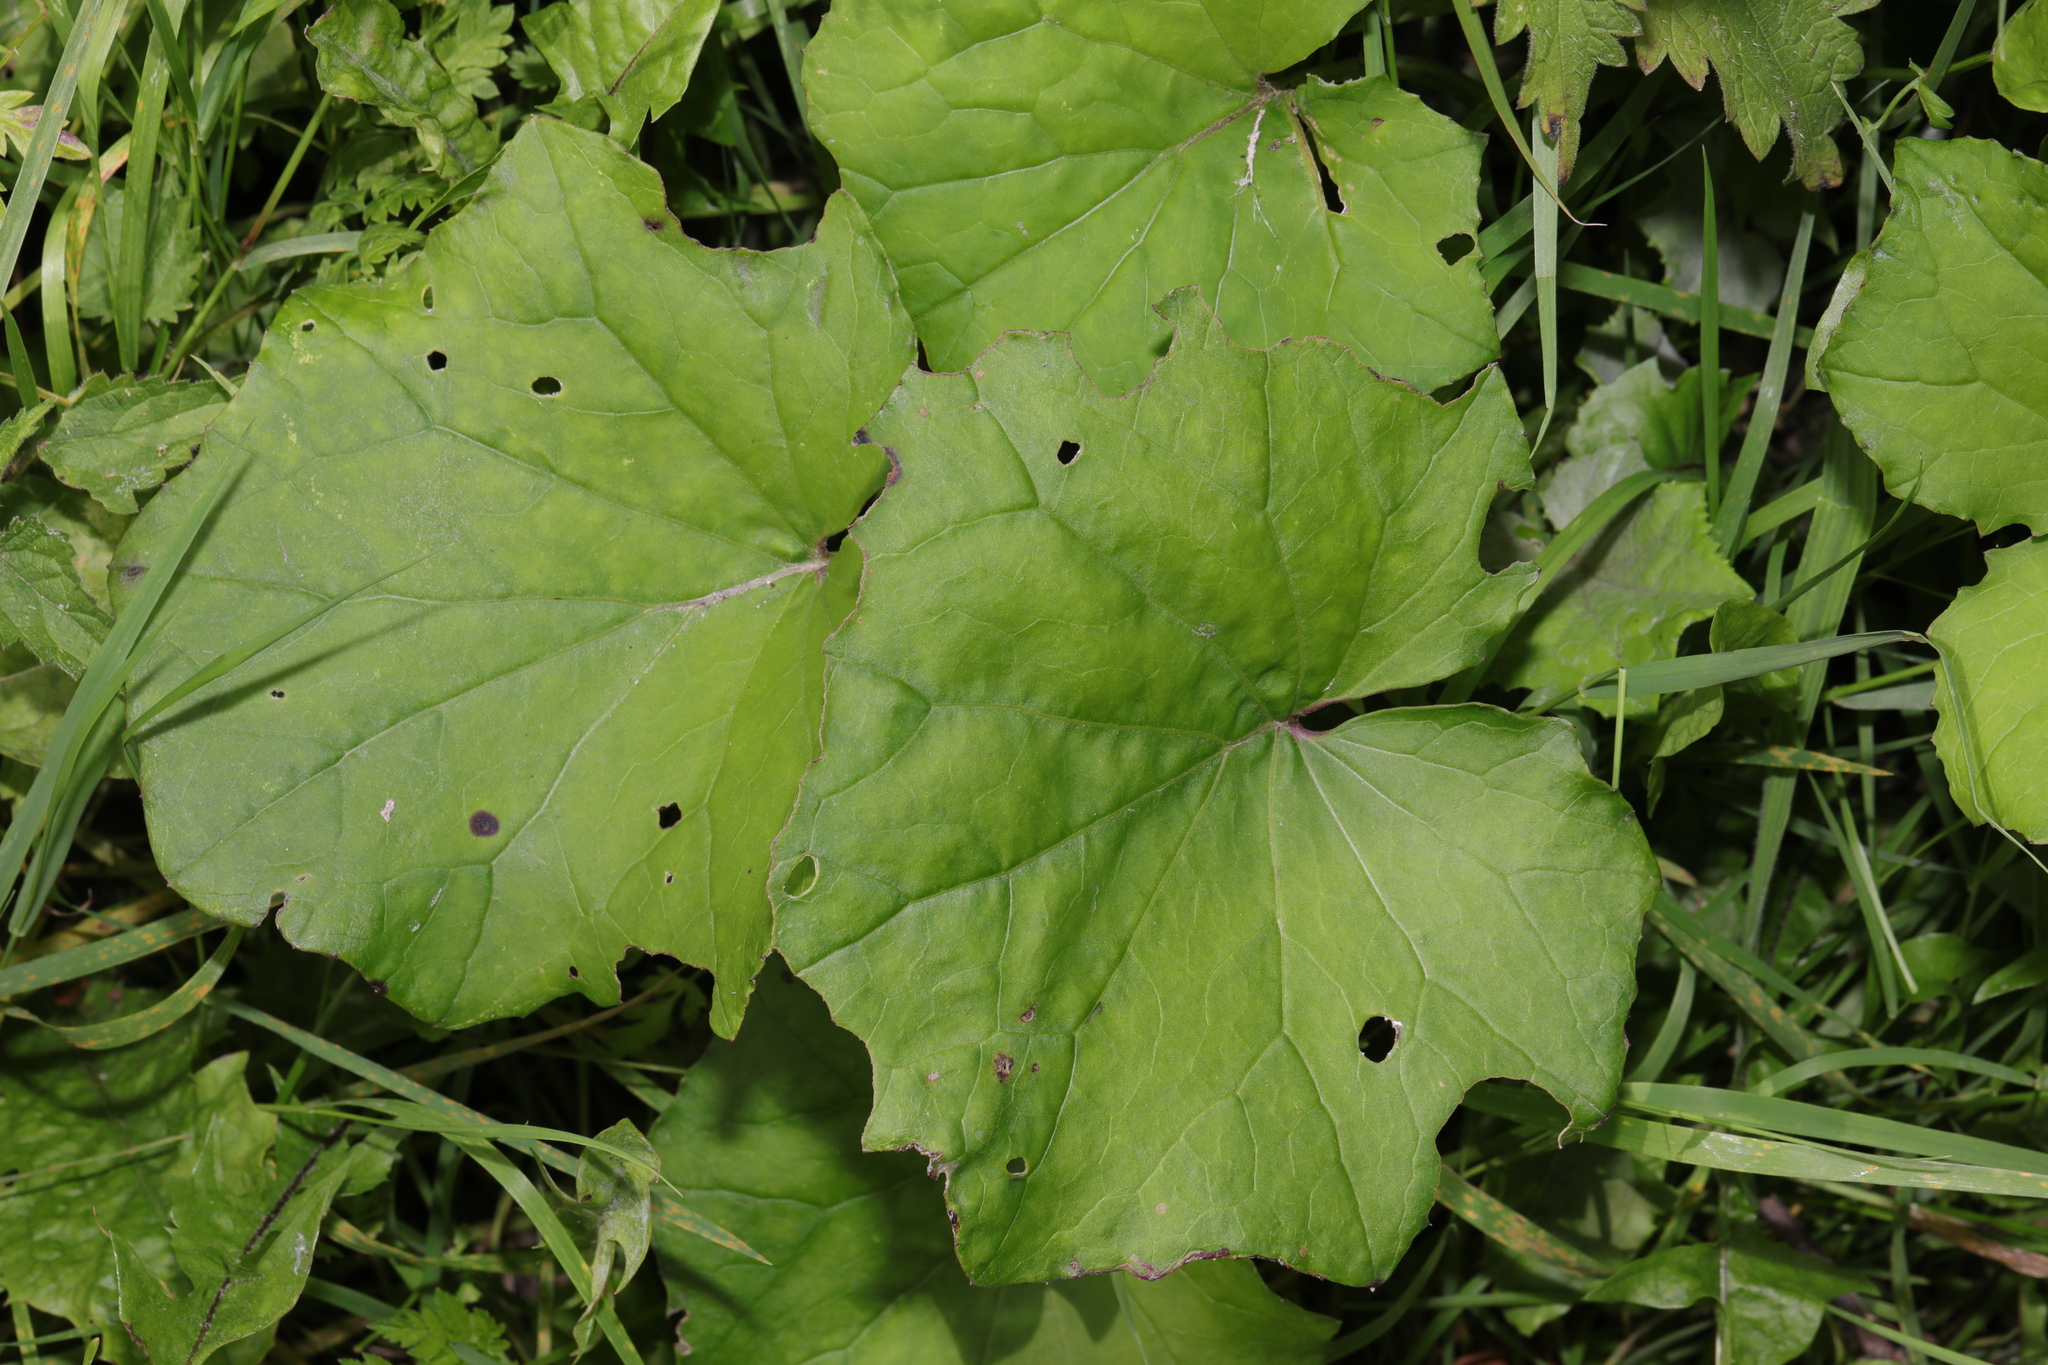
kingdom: Plantae
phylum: Tracheophyta
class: Magnoliopsida
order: Asterales
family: Asteraceae
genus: Tussilago
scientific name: Tussilago farfara
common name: Coltsfoot
